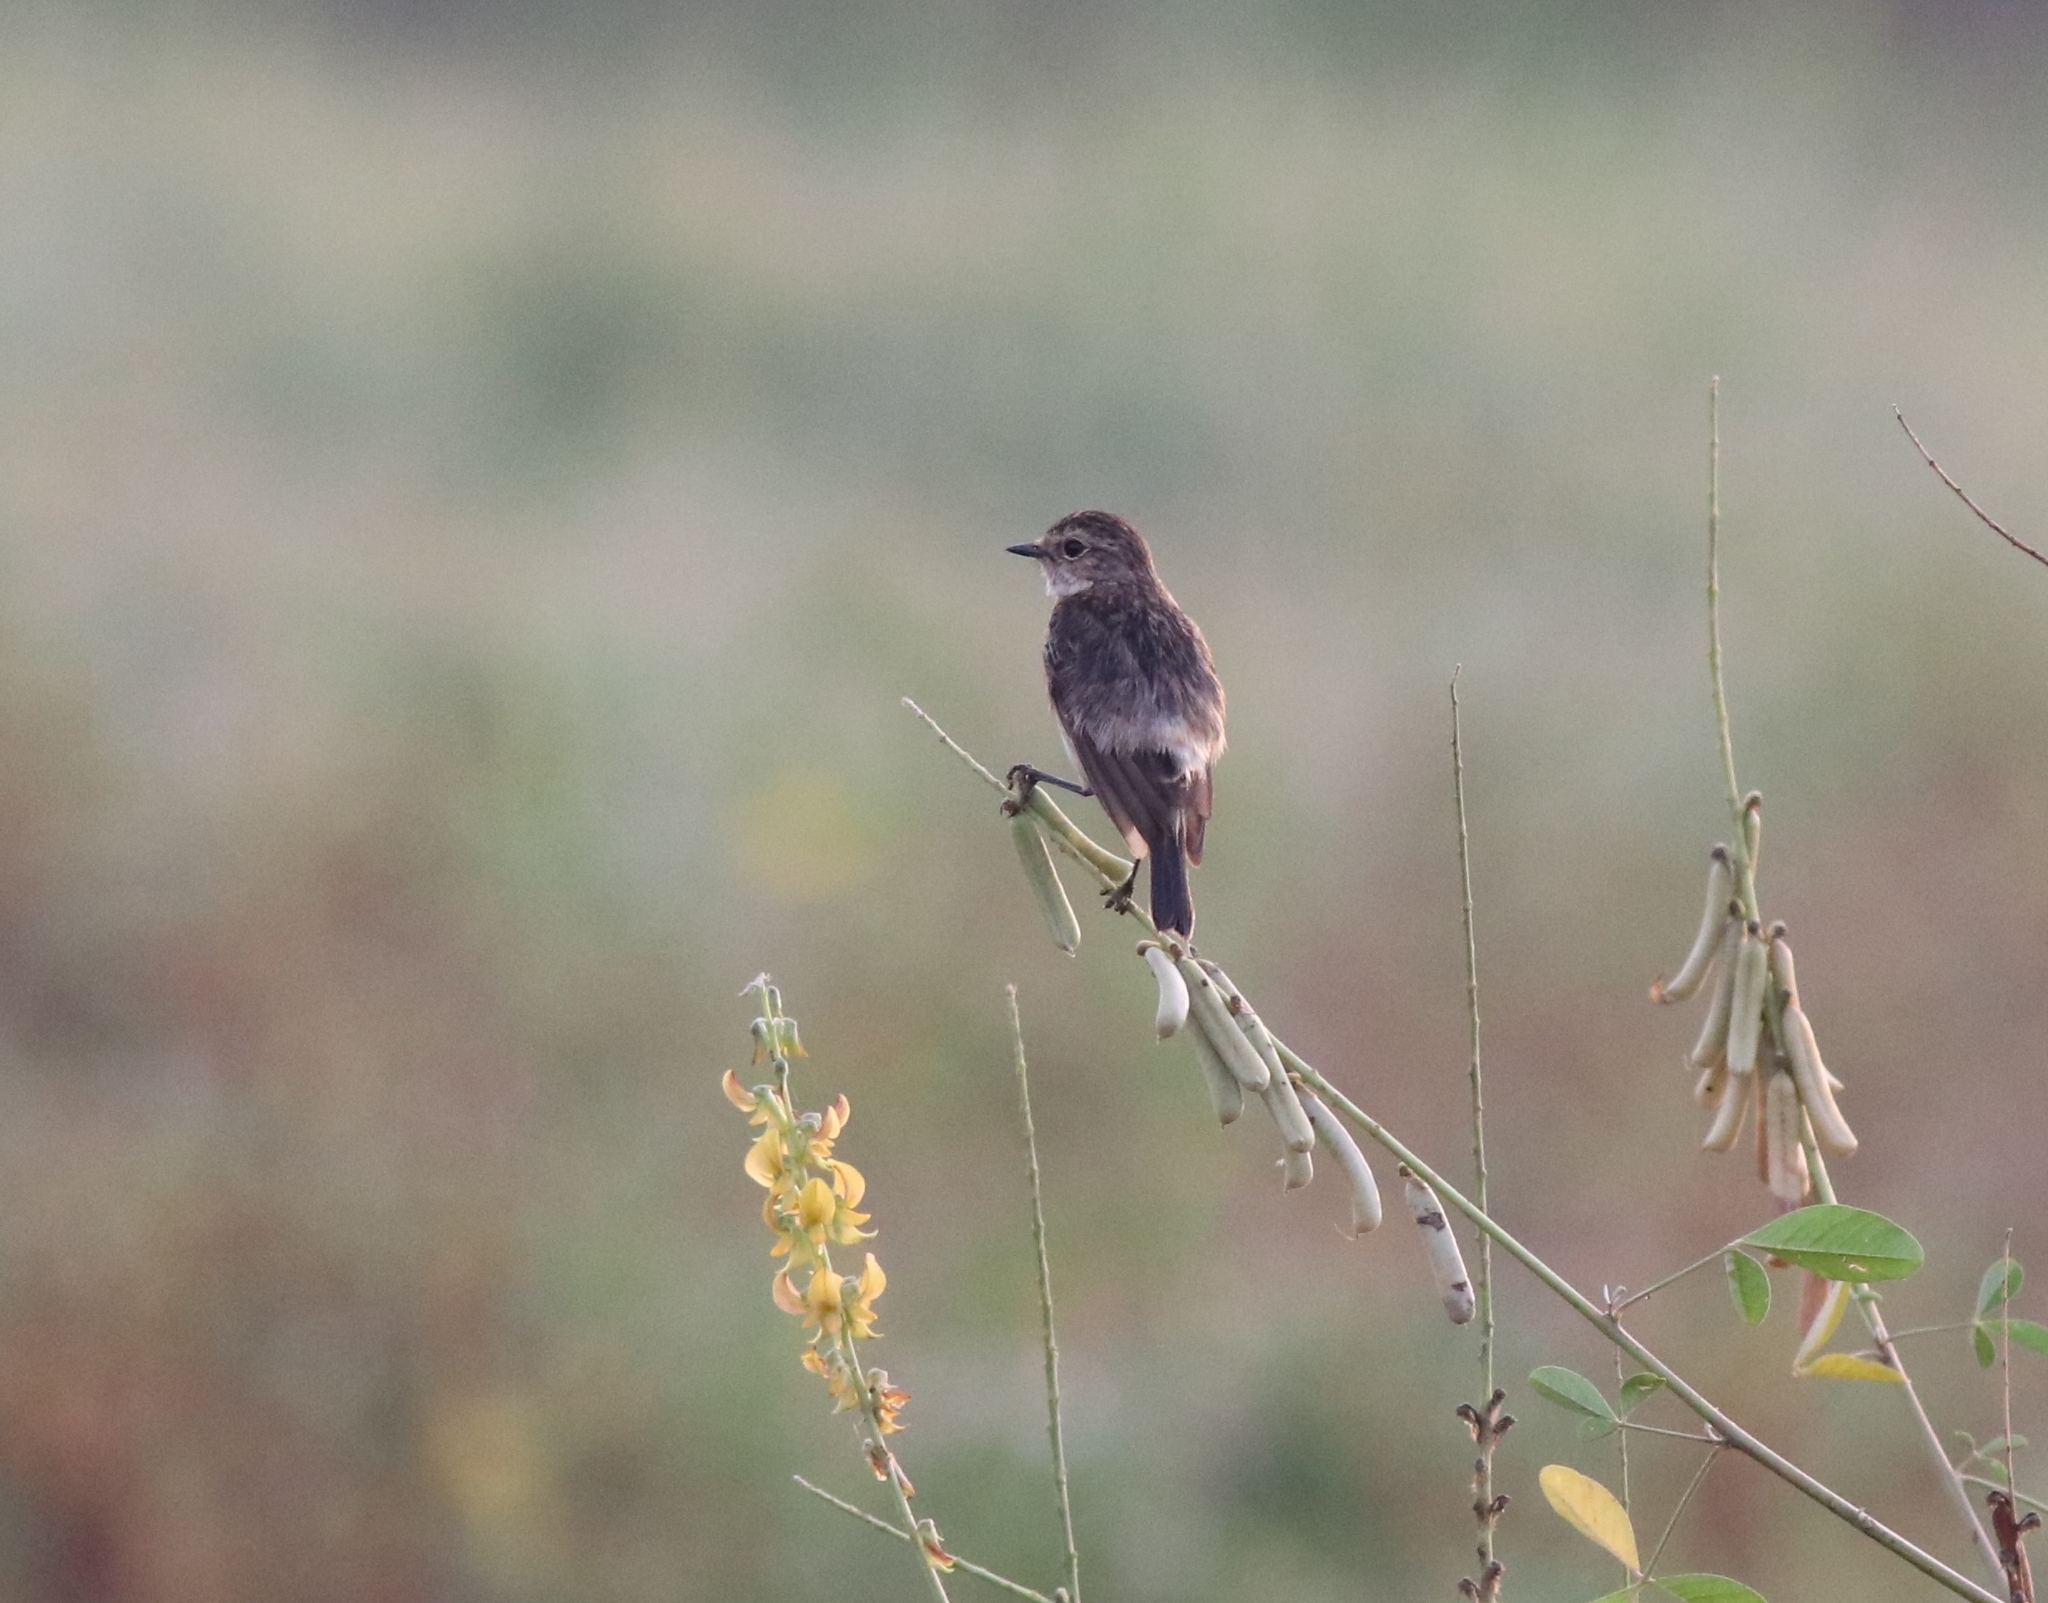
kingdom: Animalia
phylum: Chordata
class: Aves
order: Passeriformes
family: Muscicapidae
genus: Saxicola
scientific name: Saxicola maurus
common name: Siberian stonechat
